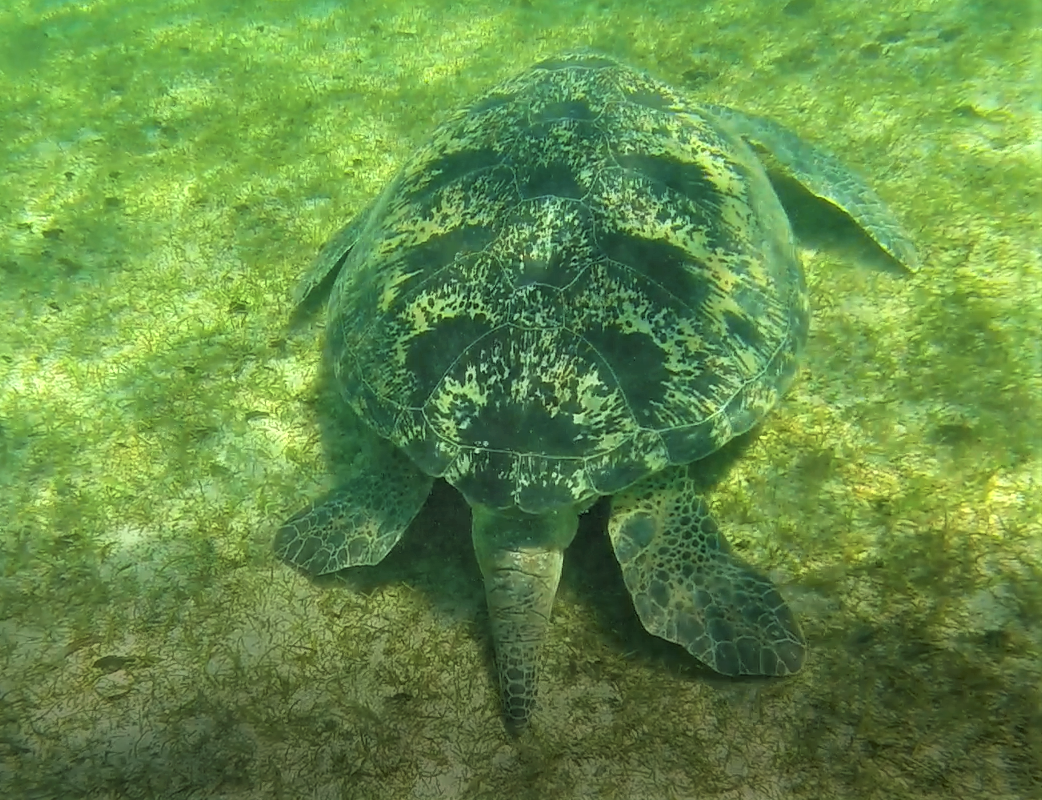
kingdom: Animalia
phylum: Chordata
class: Testudines
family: Cheloniidae
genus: Chelonia
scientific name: Chelonia mydas
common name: Green turtle
